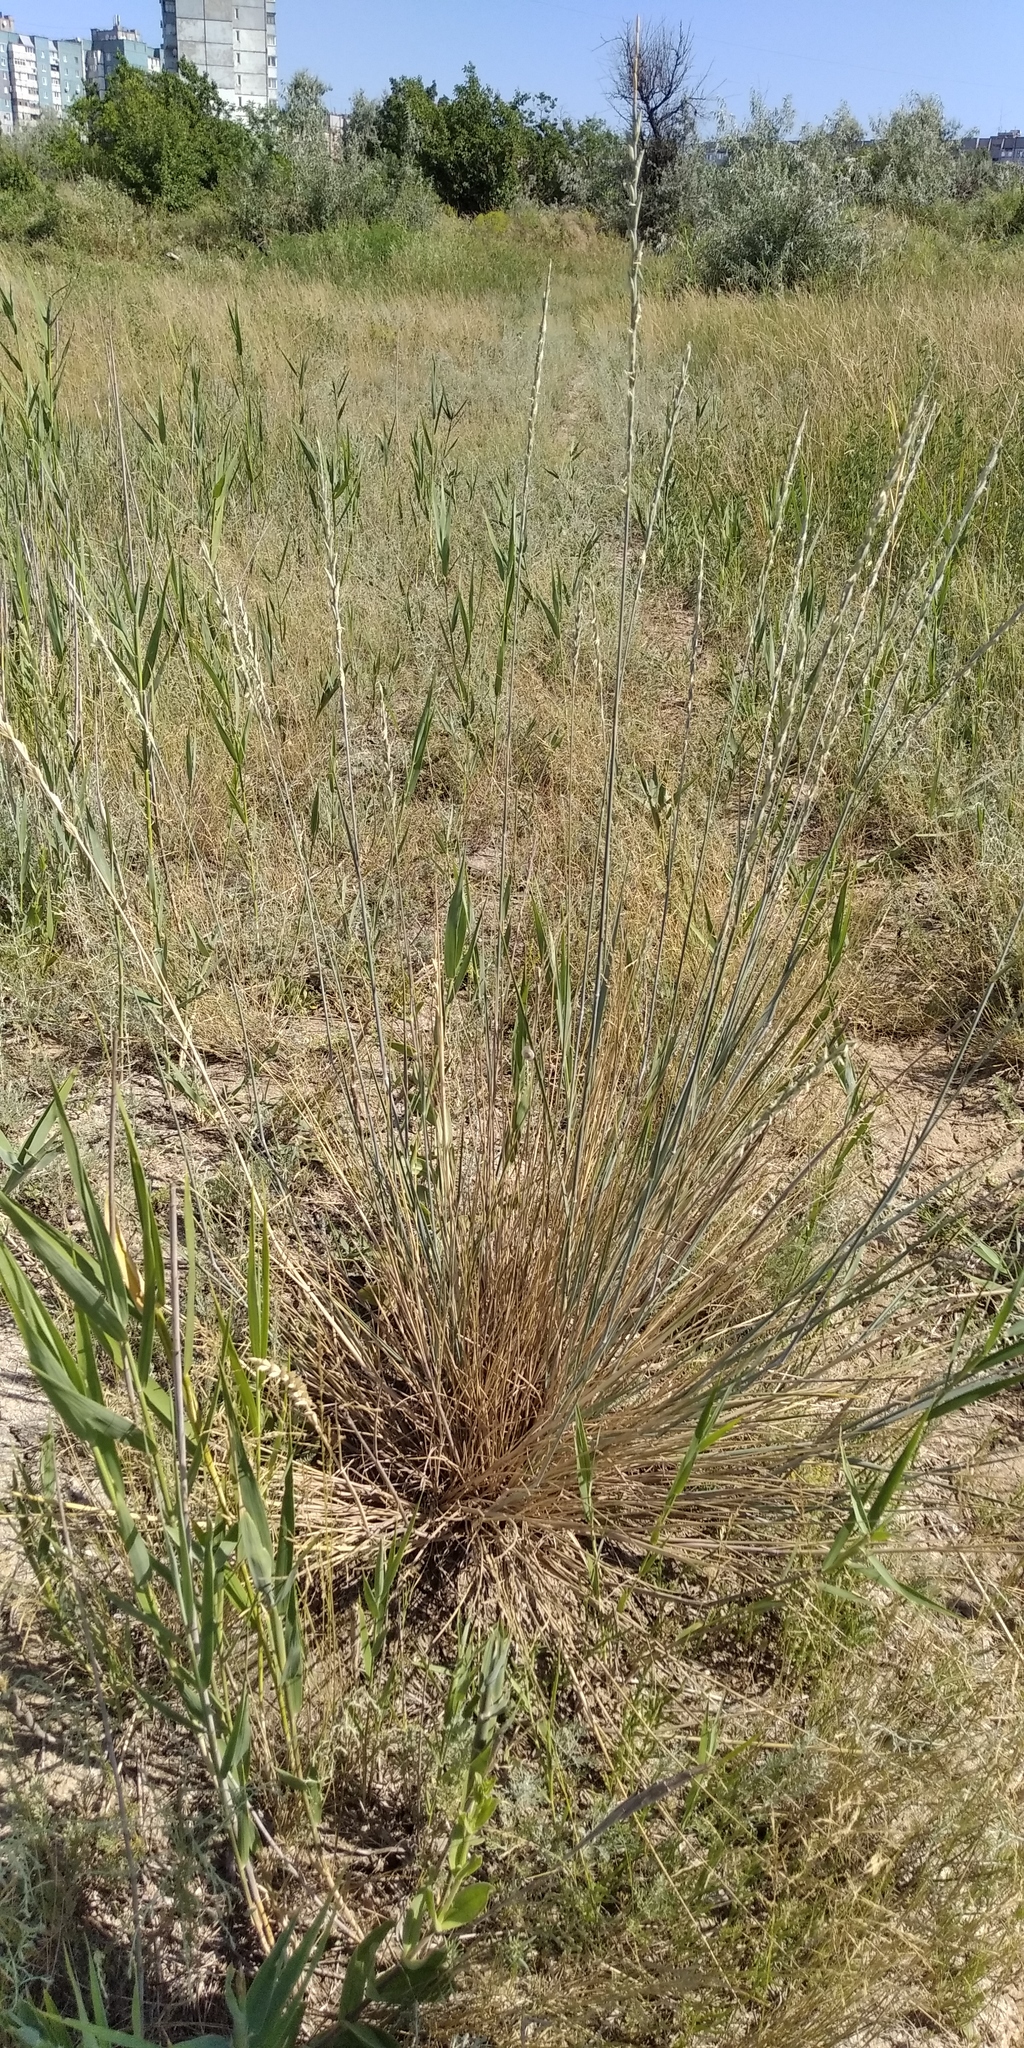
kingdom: Plantae
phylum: Tracheophyta
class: Liliopsida
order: Poales
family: Poaceae
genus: Thinopyrum
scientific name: Thinopyrum elongatum
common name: Tall wheatgrass
